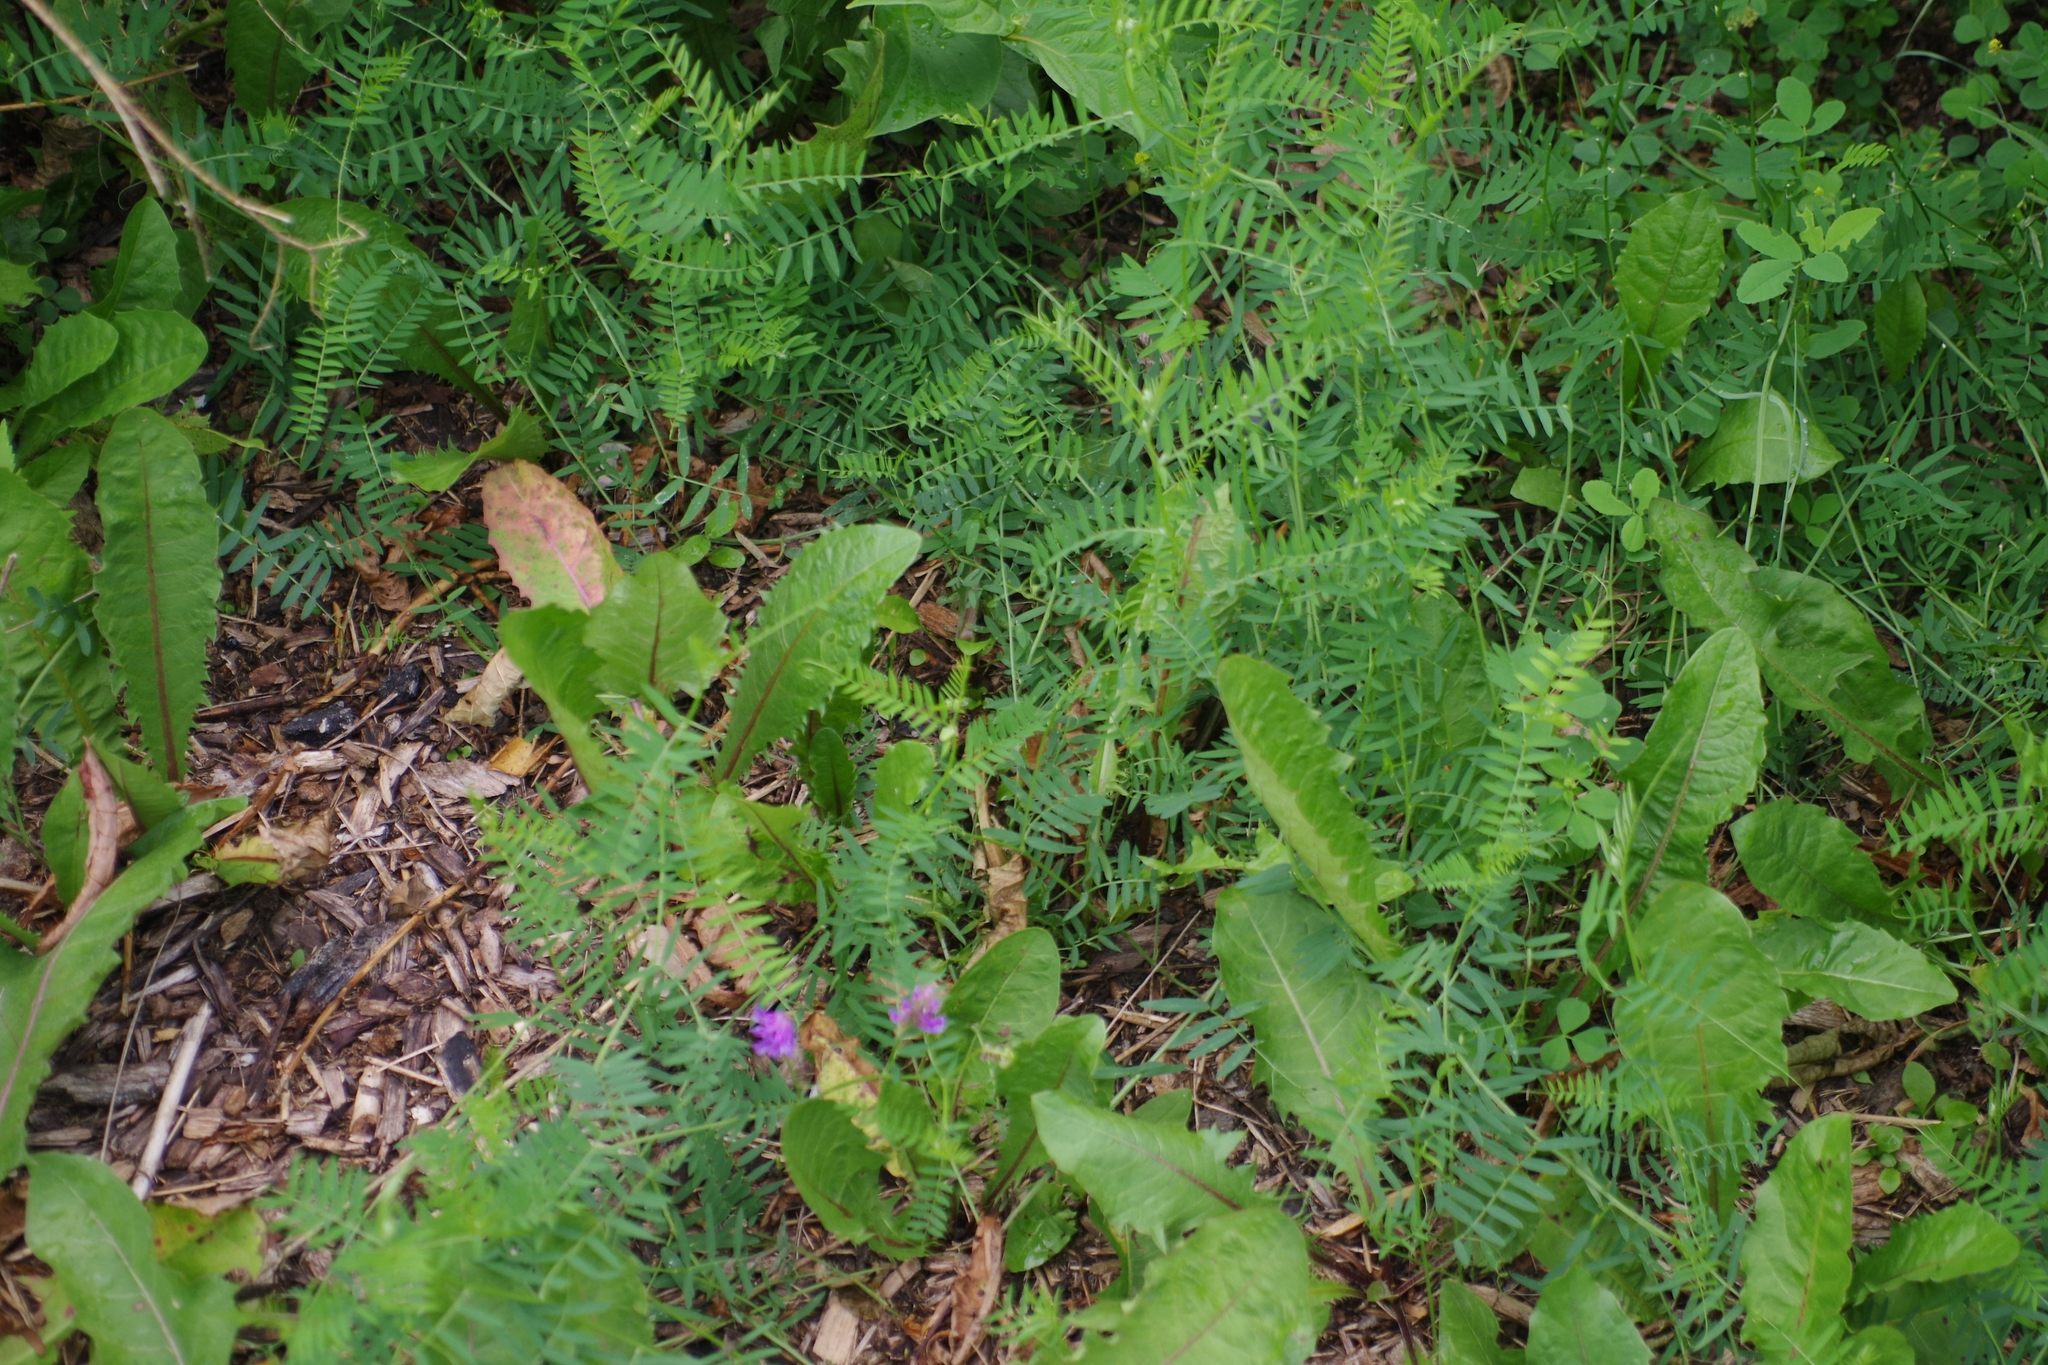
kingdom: Plantae
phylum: Tracheophyta
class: Magnoliopsida
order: Fabales
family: Fabaceae
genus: Vicia
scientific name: Vicia cracca
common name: Bird vetch
